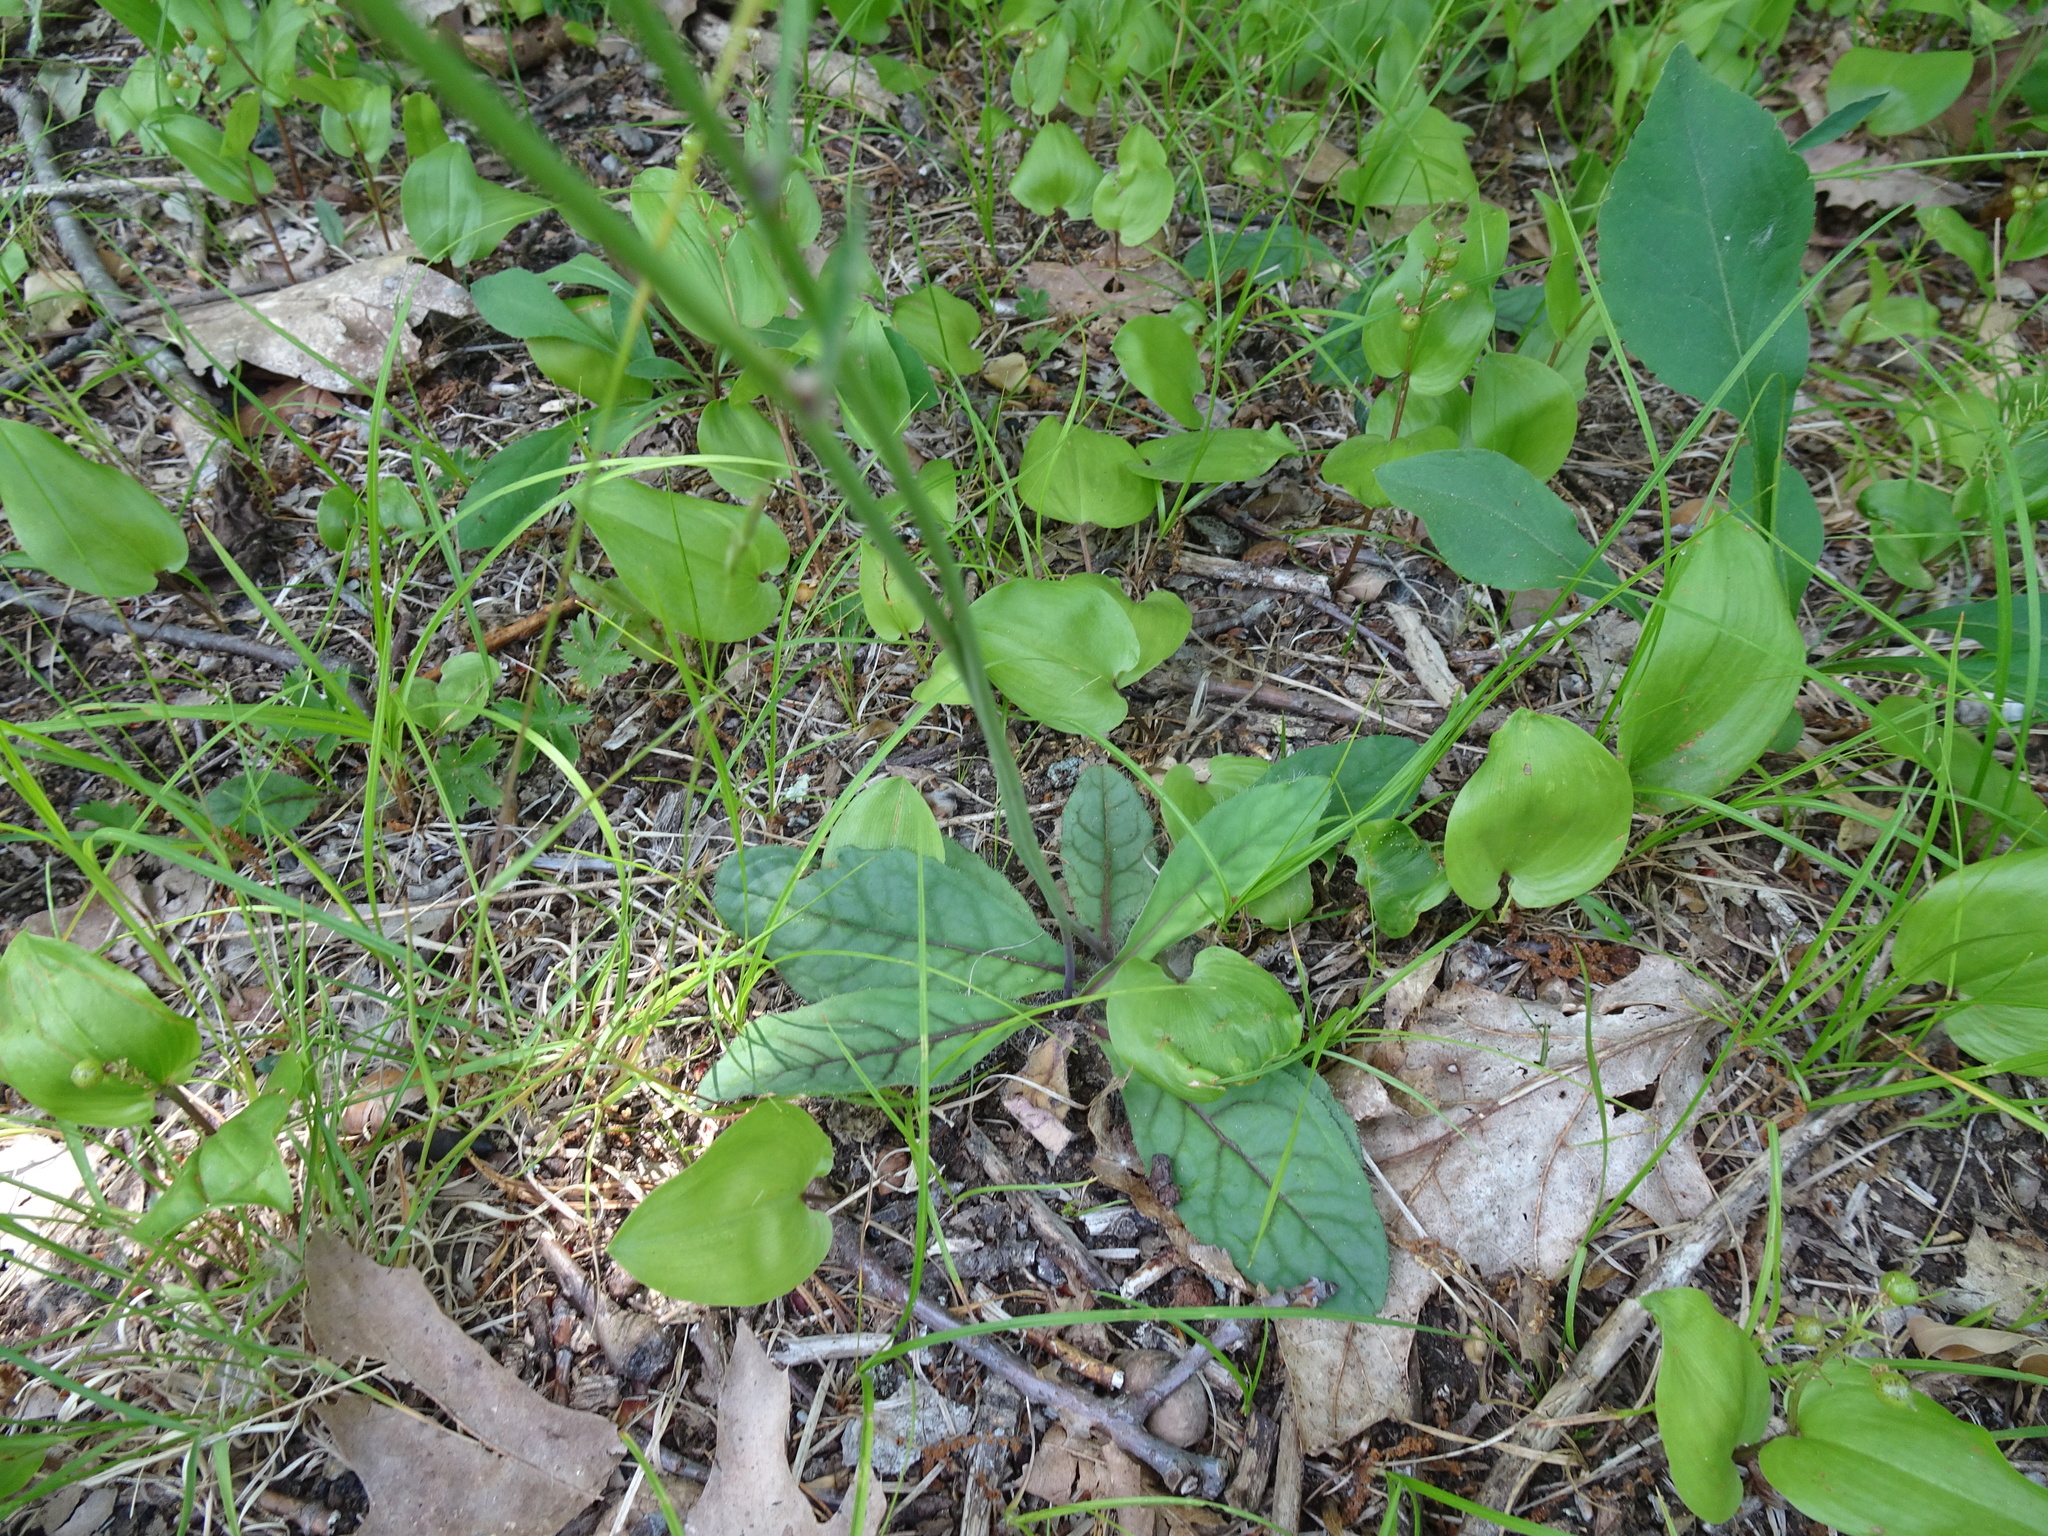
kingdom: Plantae
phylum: Tracheophyta
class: Magnoliopsida
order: Asterales
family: Asteraceae
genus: Hieracium
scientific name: Hieracium venosum
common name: Rattlesnake hawkweed
